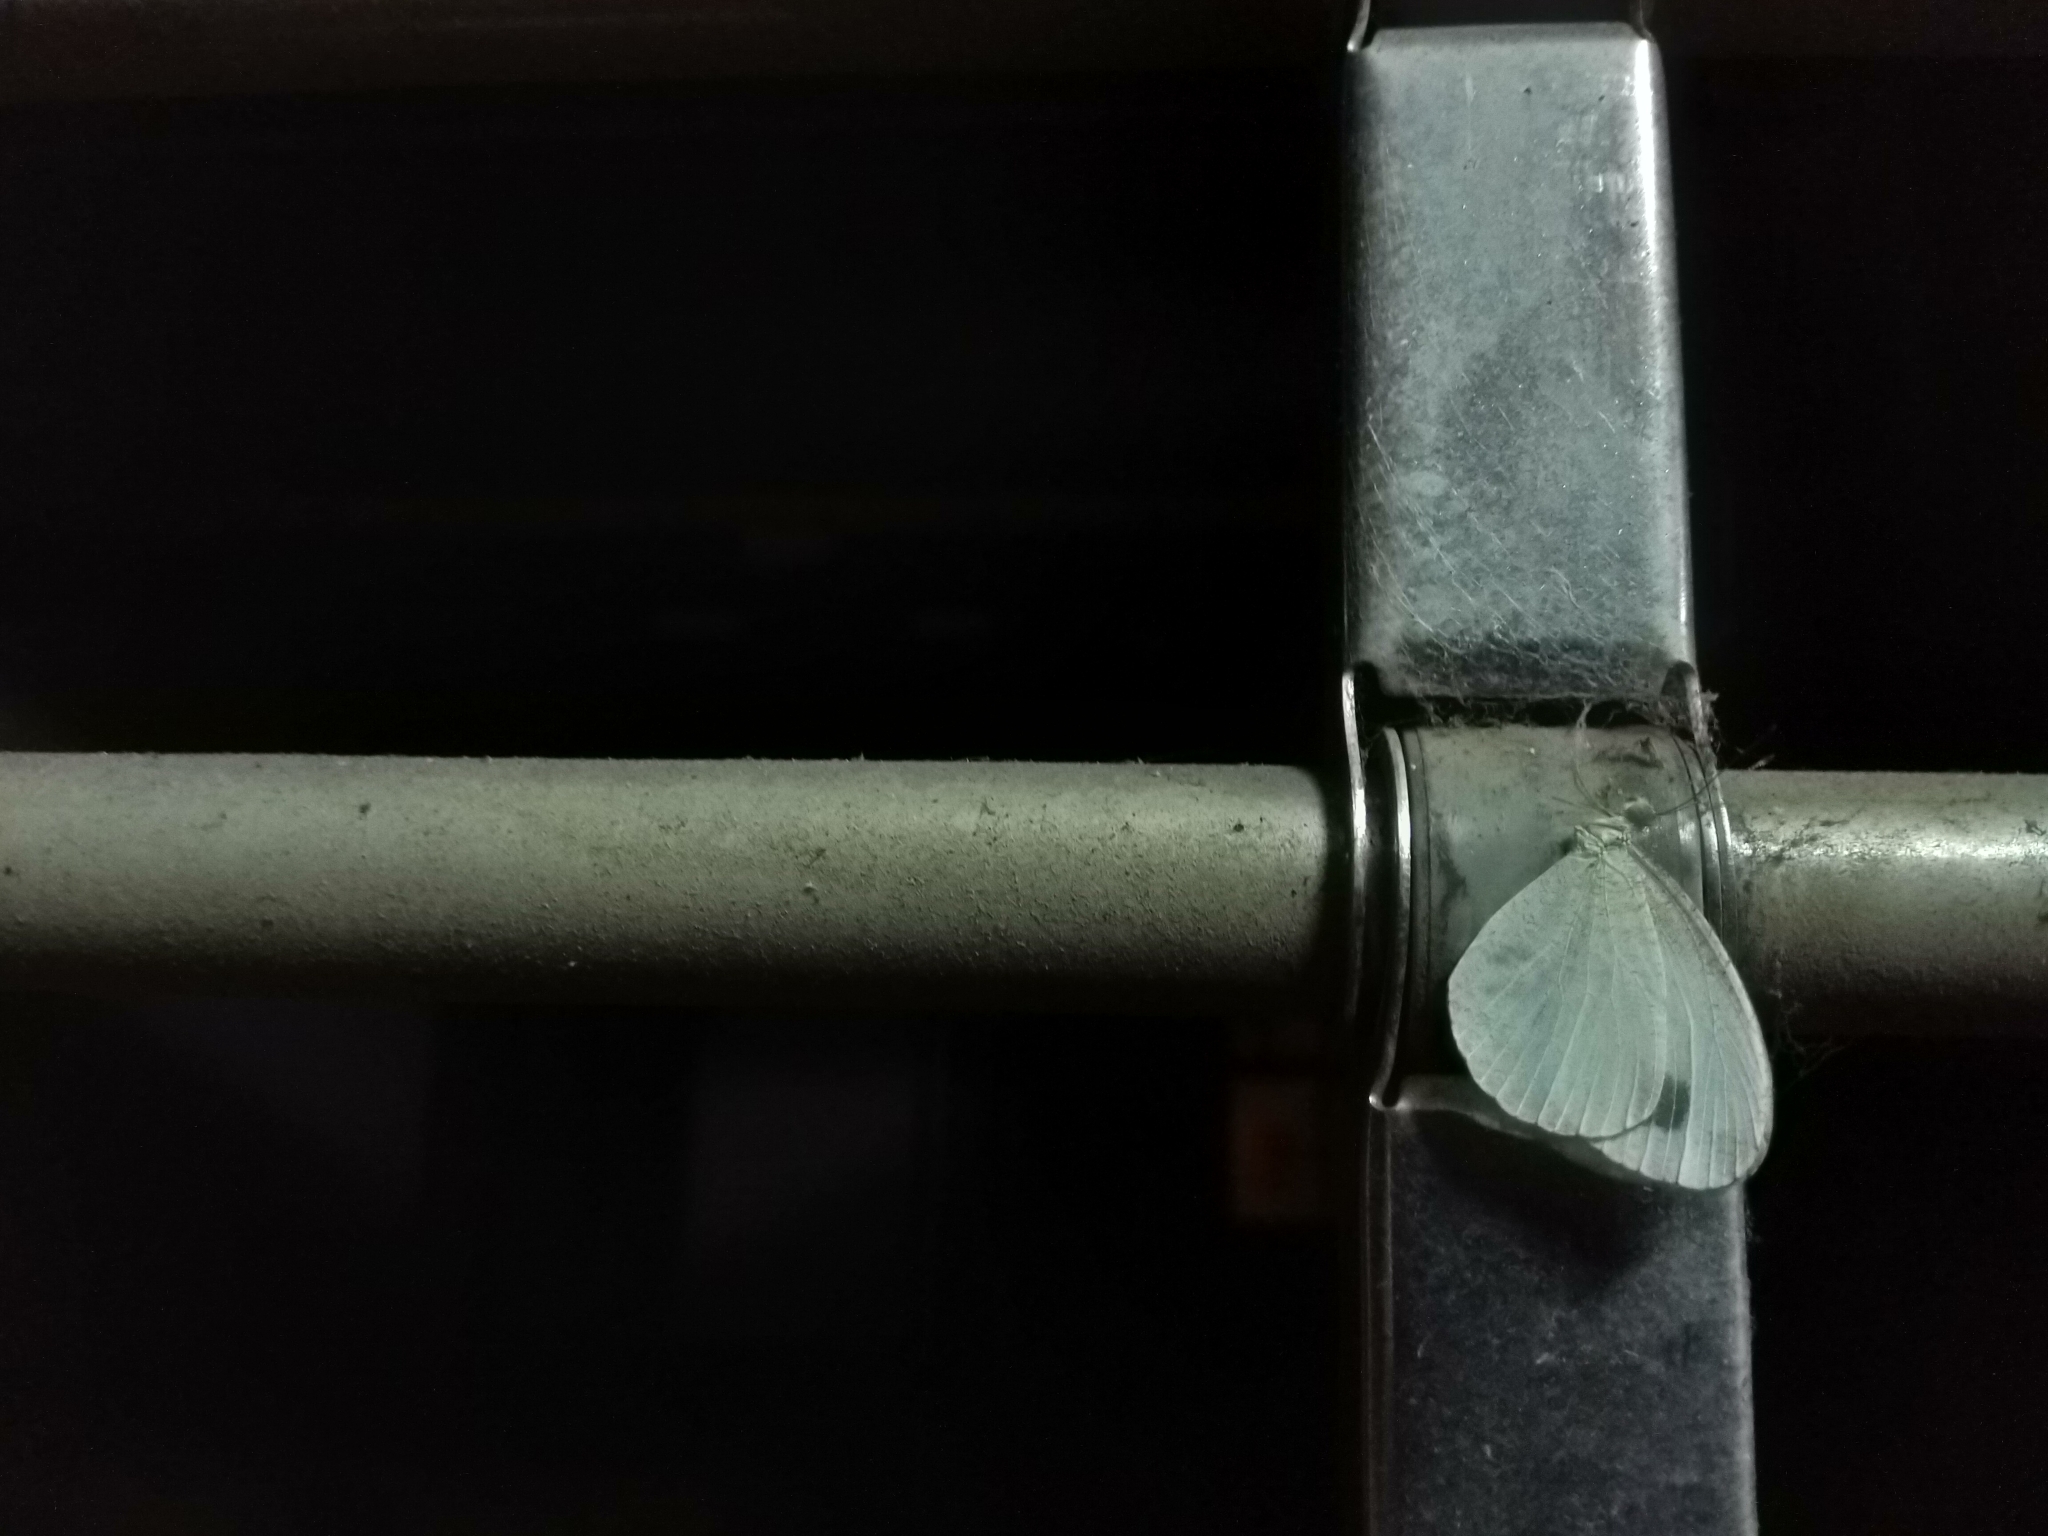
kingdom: Animalia
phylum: Arthropoda
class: Insecta
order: Lepidoptera
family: Pieridae
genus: Leptosia
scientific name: Leptosia nina
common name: Psyche
